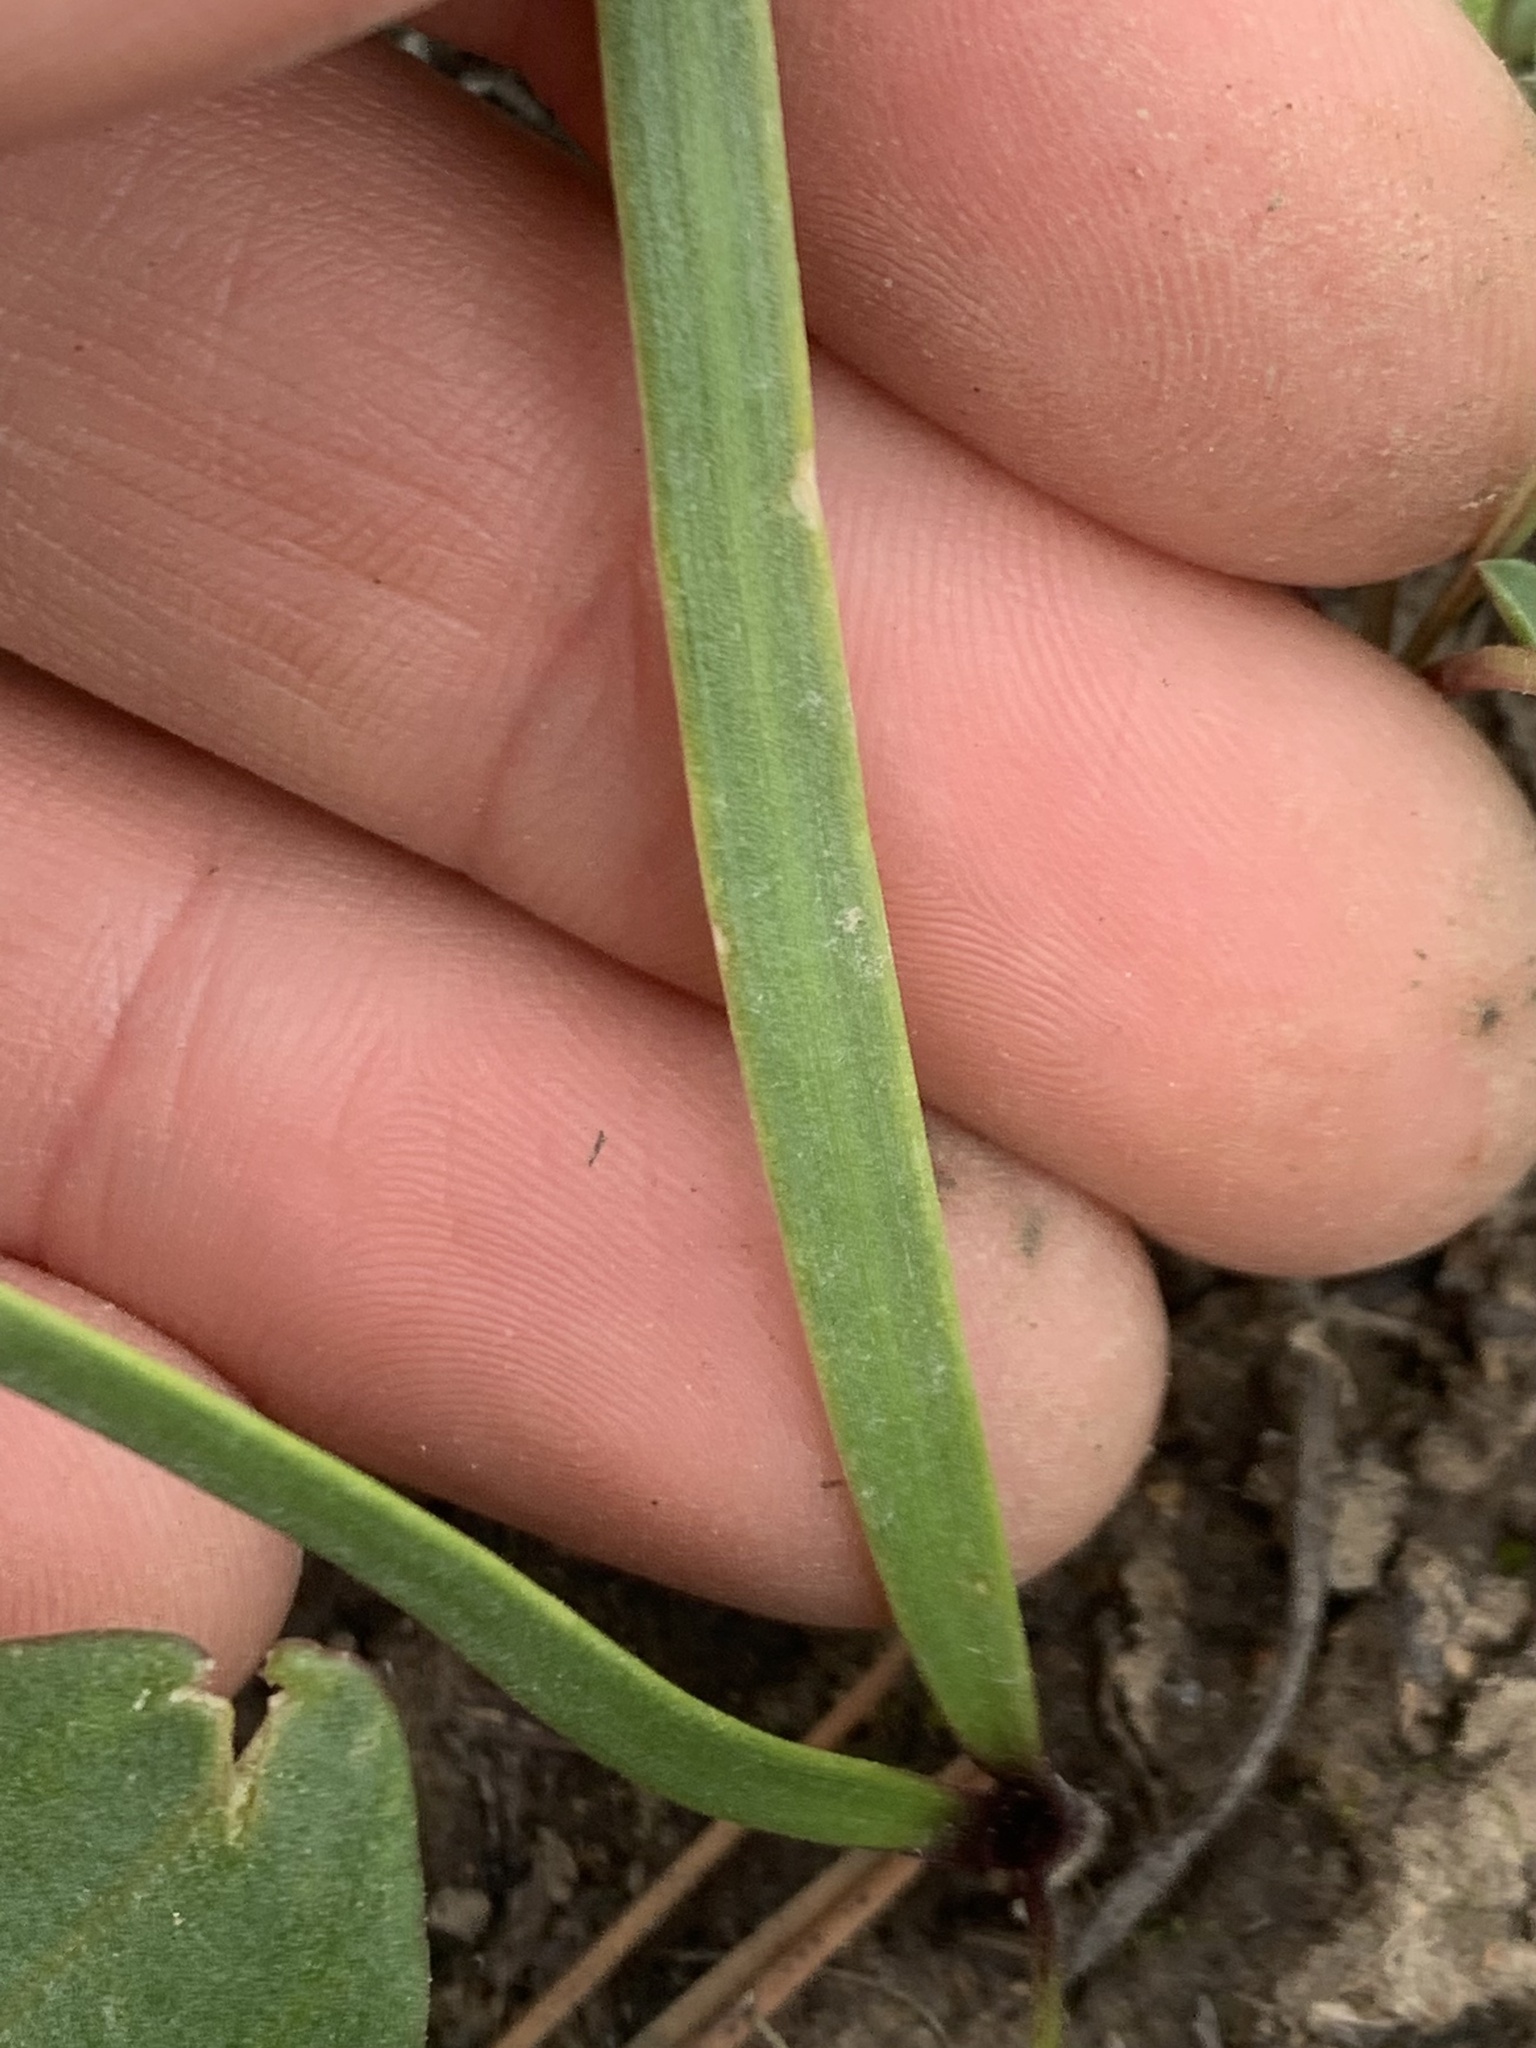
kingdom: Plantae
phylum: Tracheophyta
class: Liliopsida
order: Asparagales
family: Amaryllidaceae
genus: Allium
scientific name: Allium tolmiei
